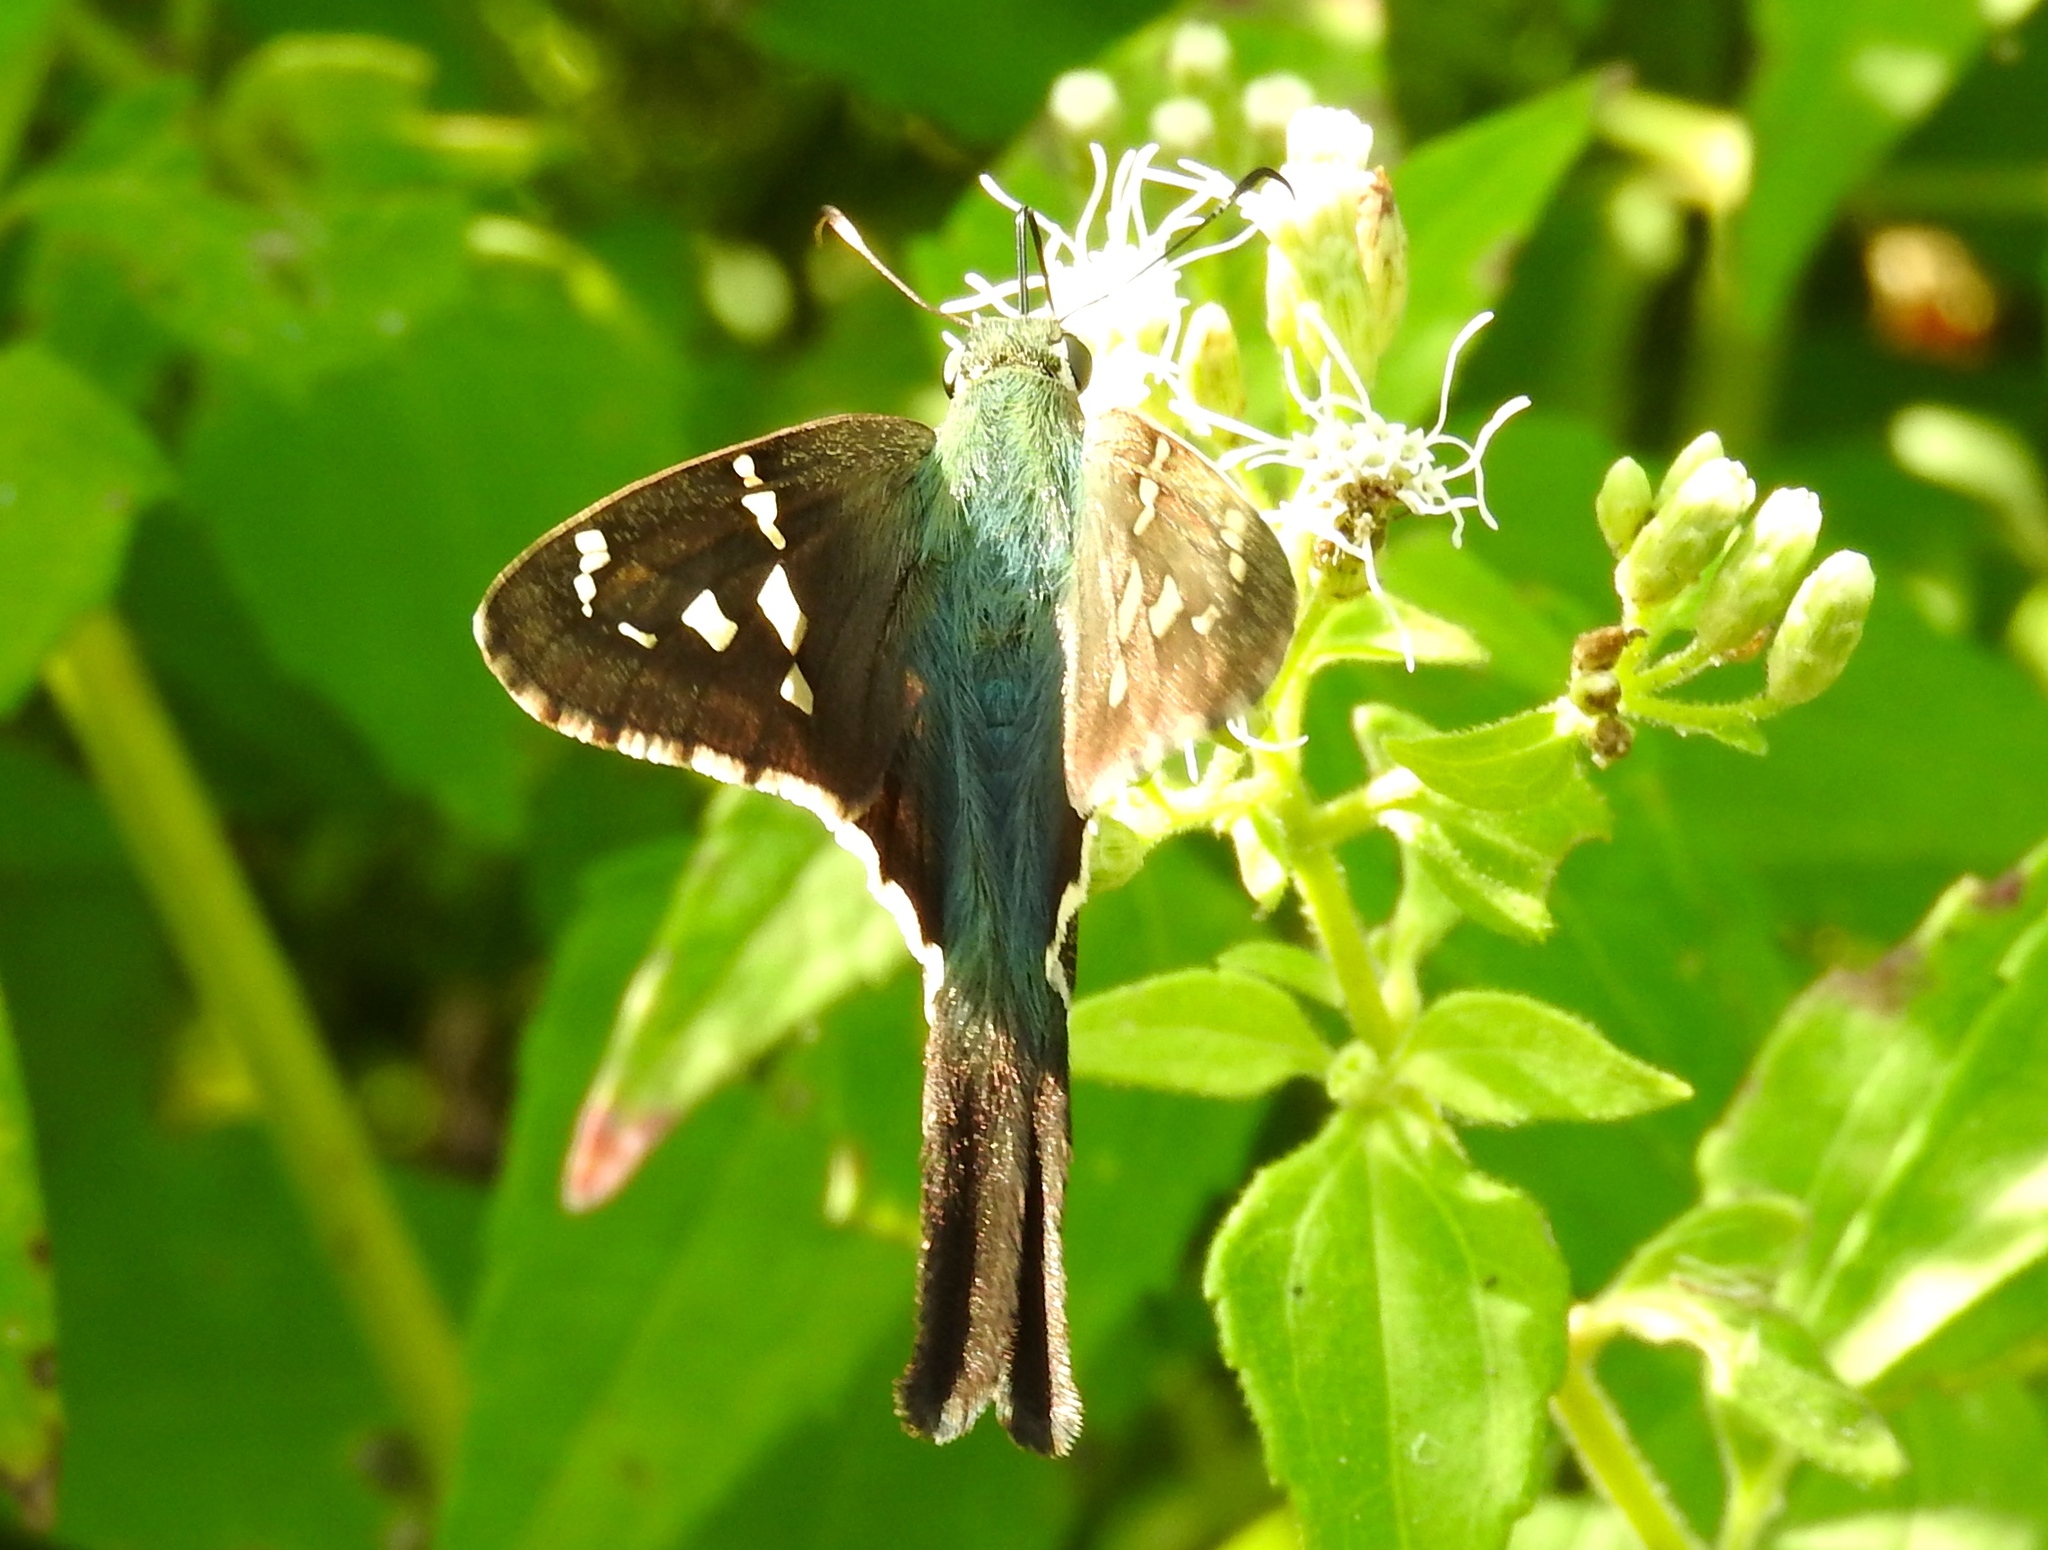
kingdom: Animalia
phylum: Arthropoda
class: Insecta
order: Lepidoptera
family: Hesperiidae
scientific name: Hesperiidae
